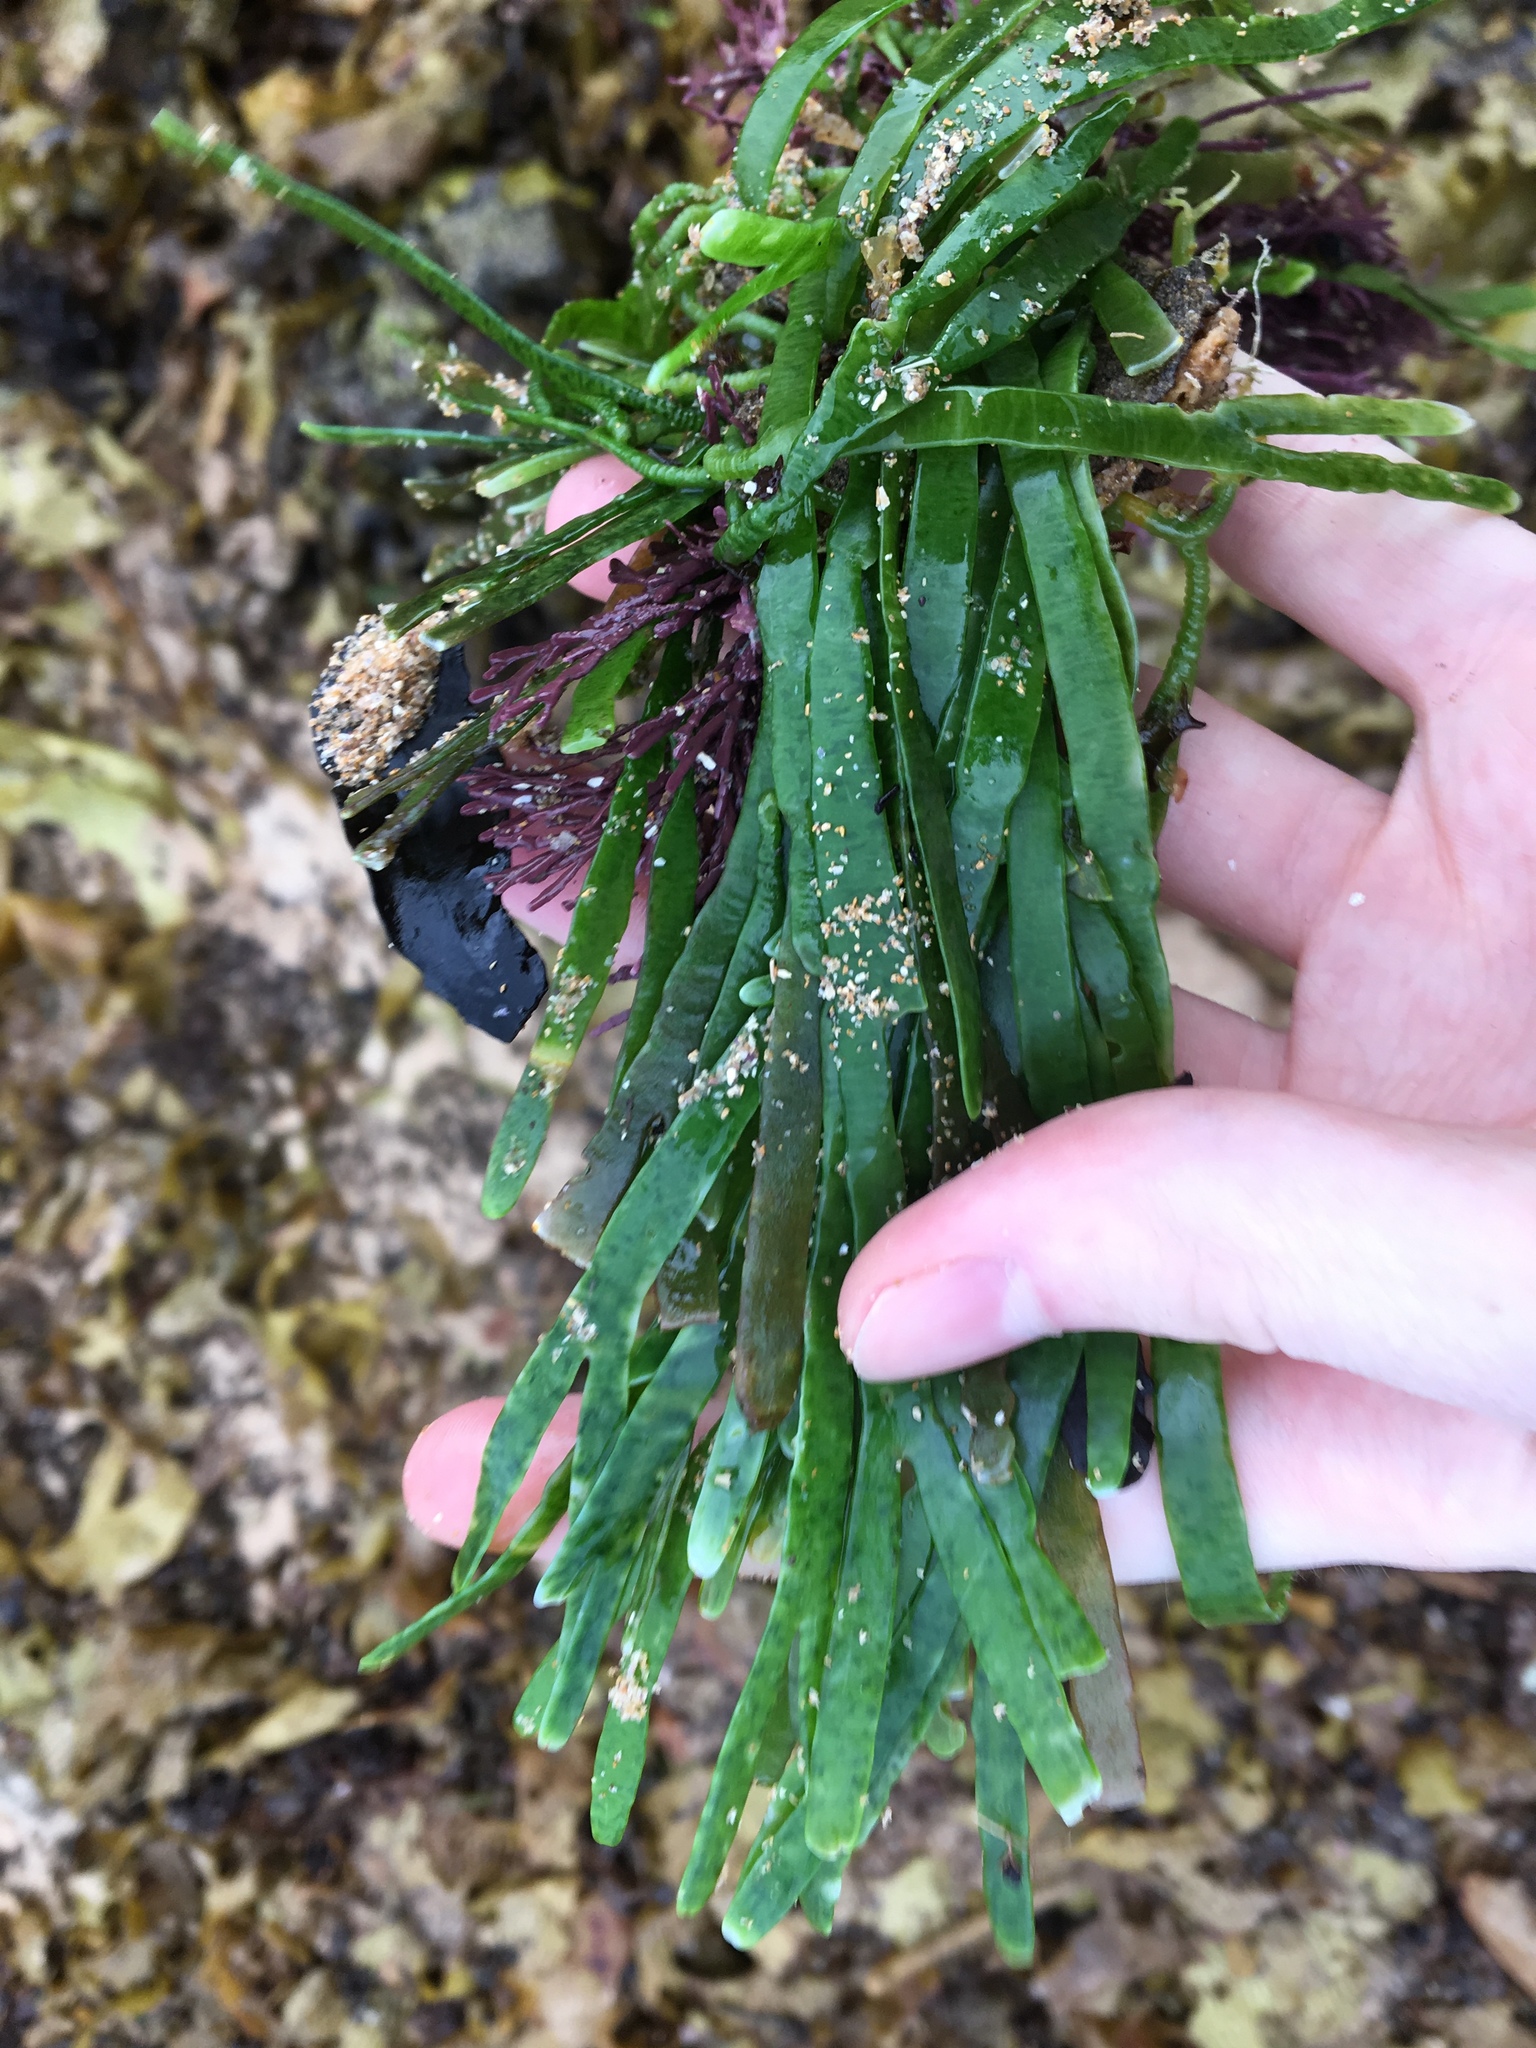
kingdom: Plantae
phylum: Chlorophyta
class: Ulvophyceae
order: Bryopsidales
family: Caulerpaceae
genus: Caulerpa
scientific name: Caulerpa filiformis
